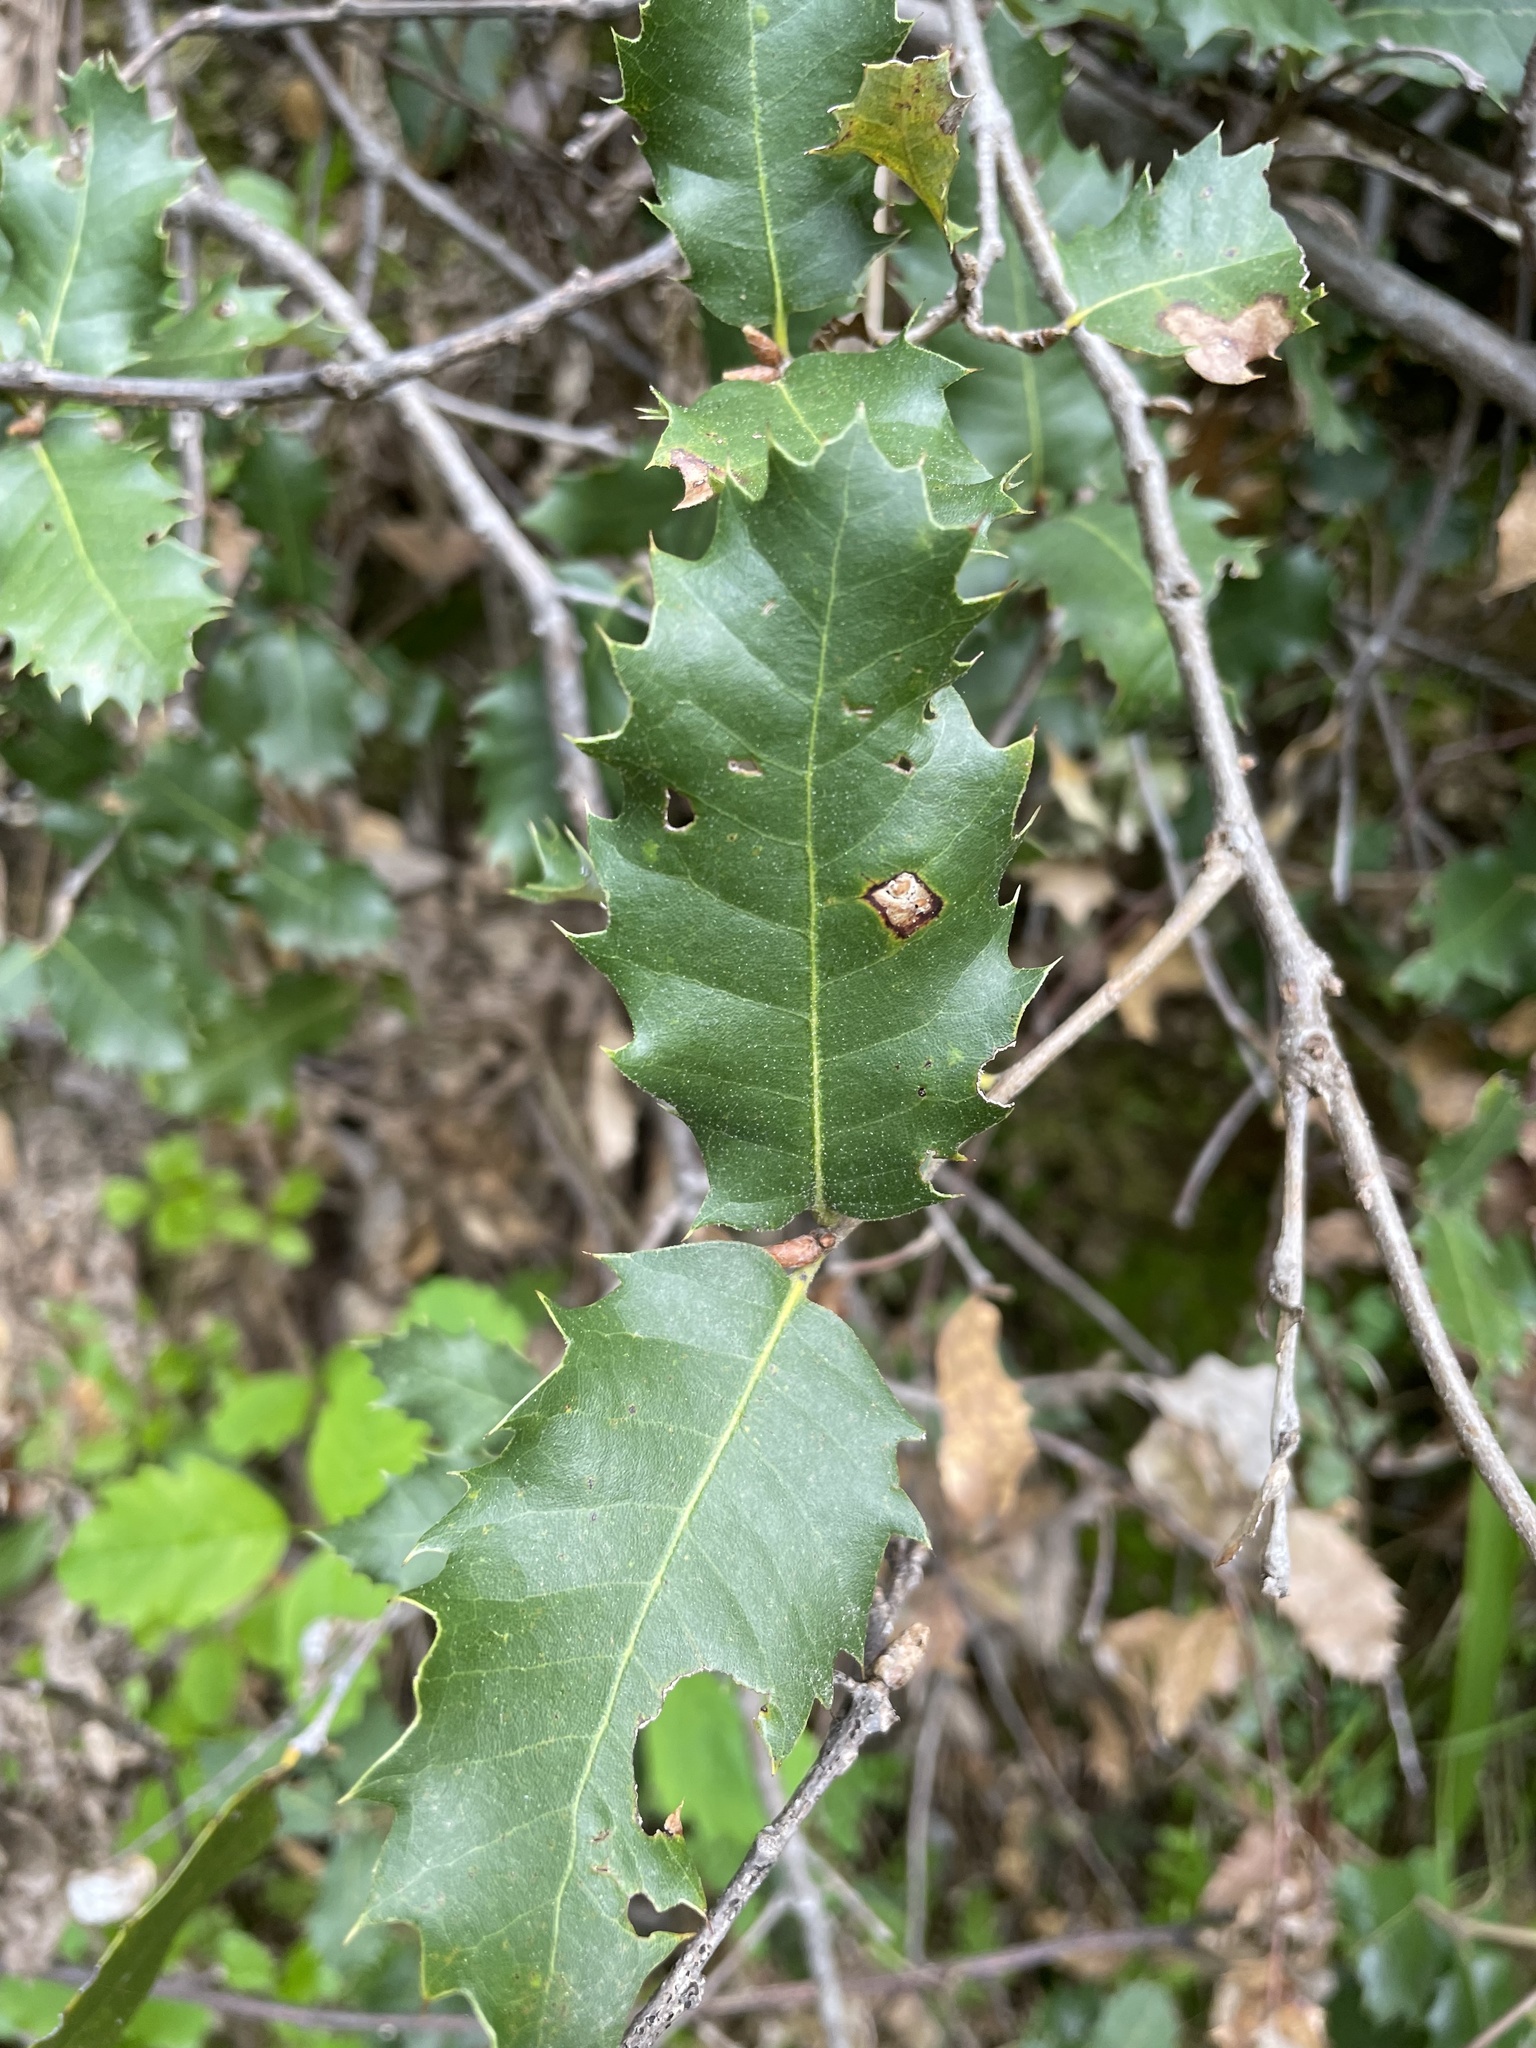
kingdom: Plantae
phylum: Tracheophyta
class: Magnoliopsida
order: Fagales
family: Fagaceae
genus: Quercus
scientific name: Quercus chrysolepis
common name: Canyon live oak
